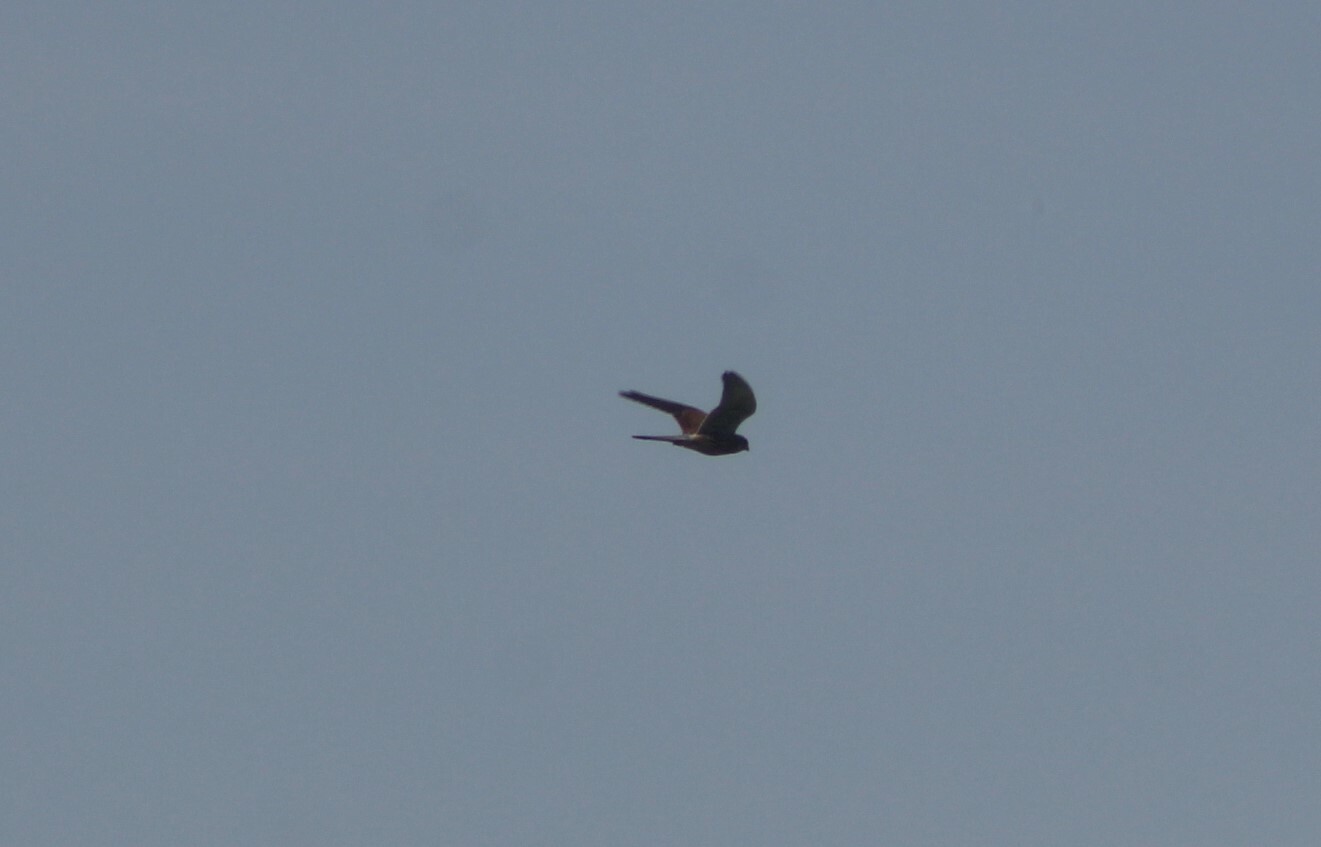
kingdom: Animalia
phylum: Chordata
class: Aves
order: Falconiformes
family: Falconidae
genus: Falco
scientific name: Falco tinnunculus
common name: Common kestrel
